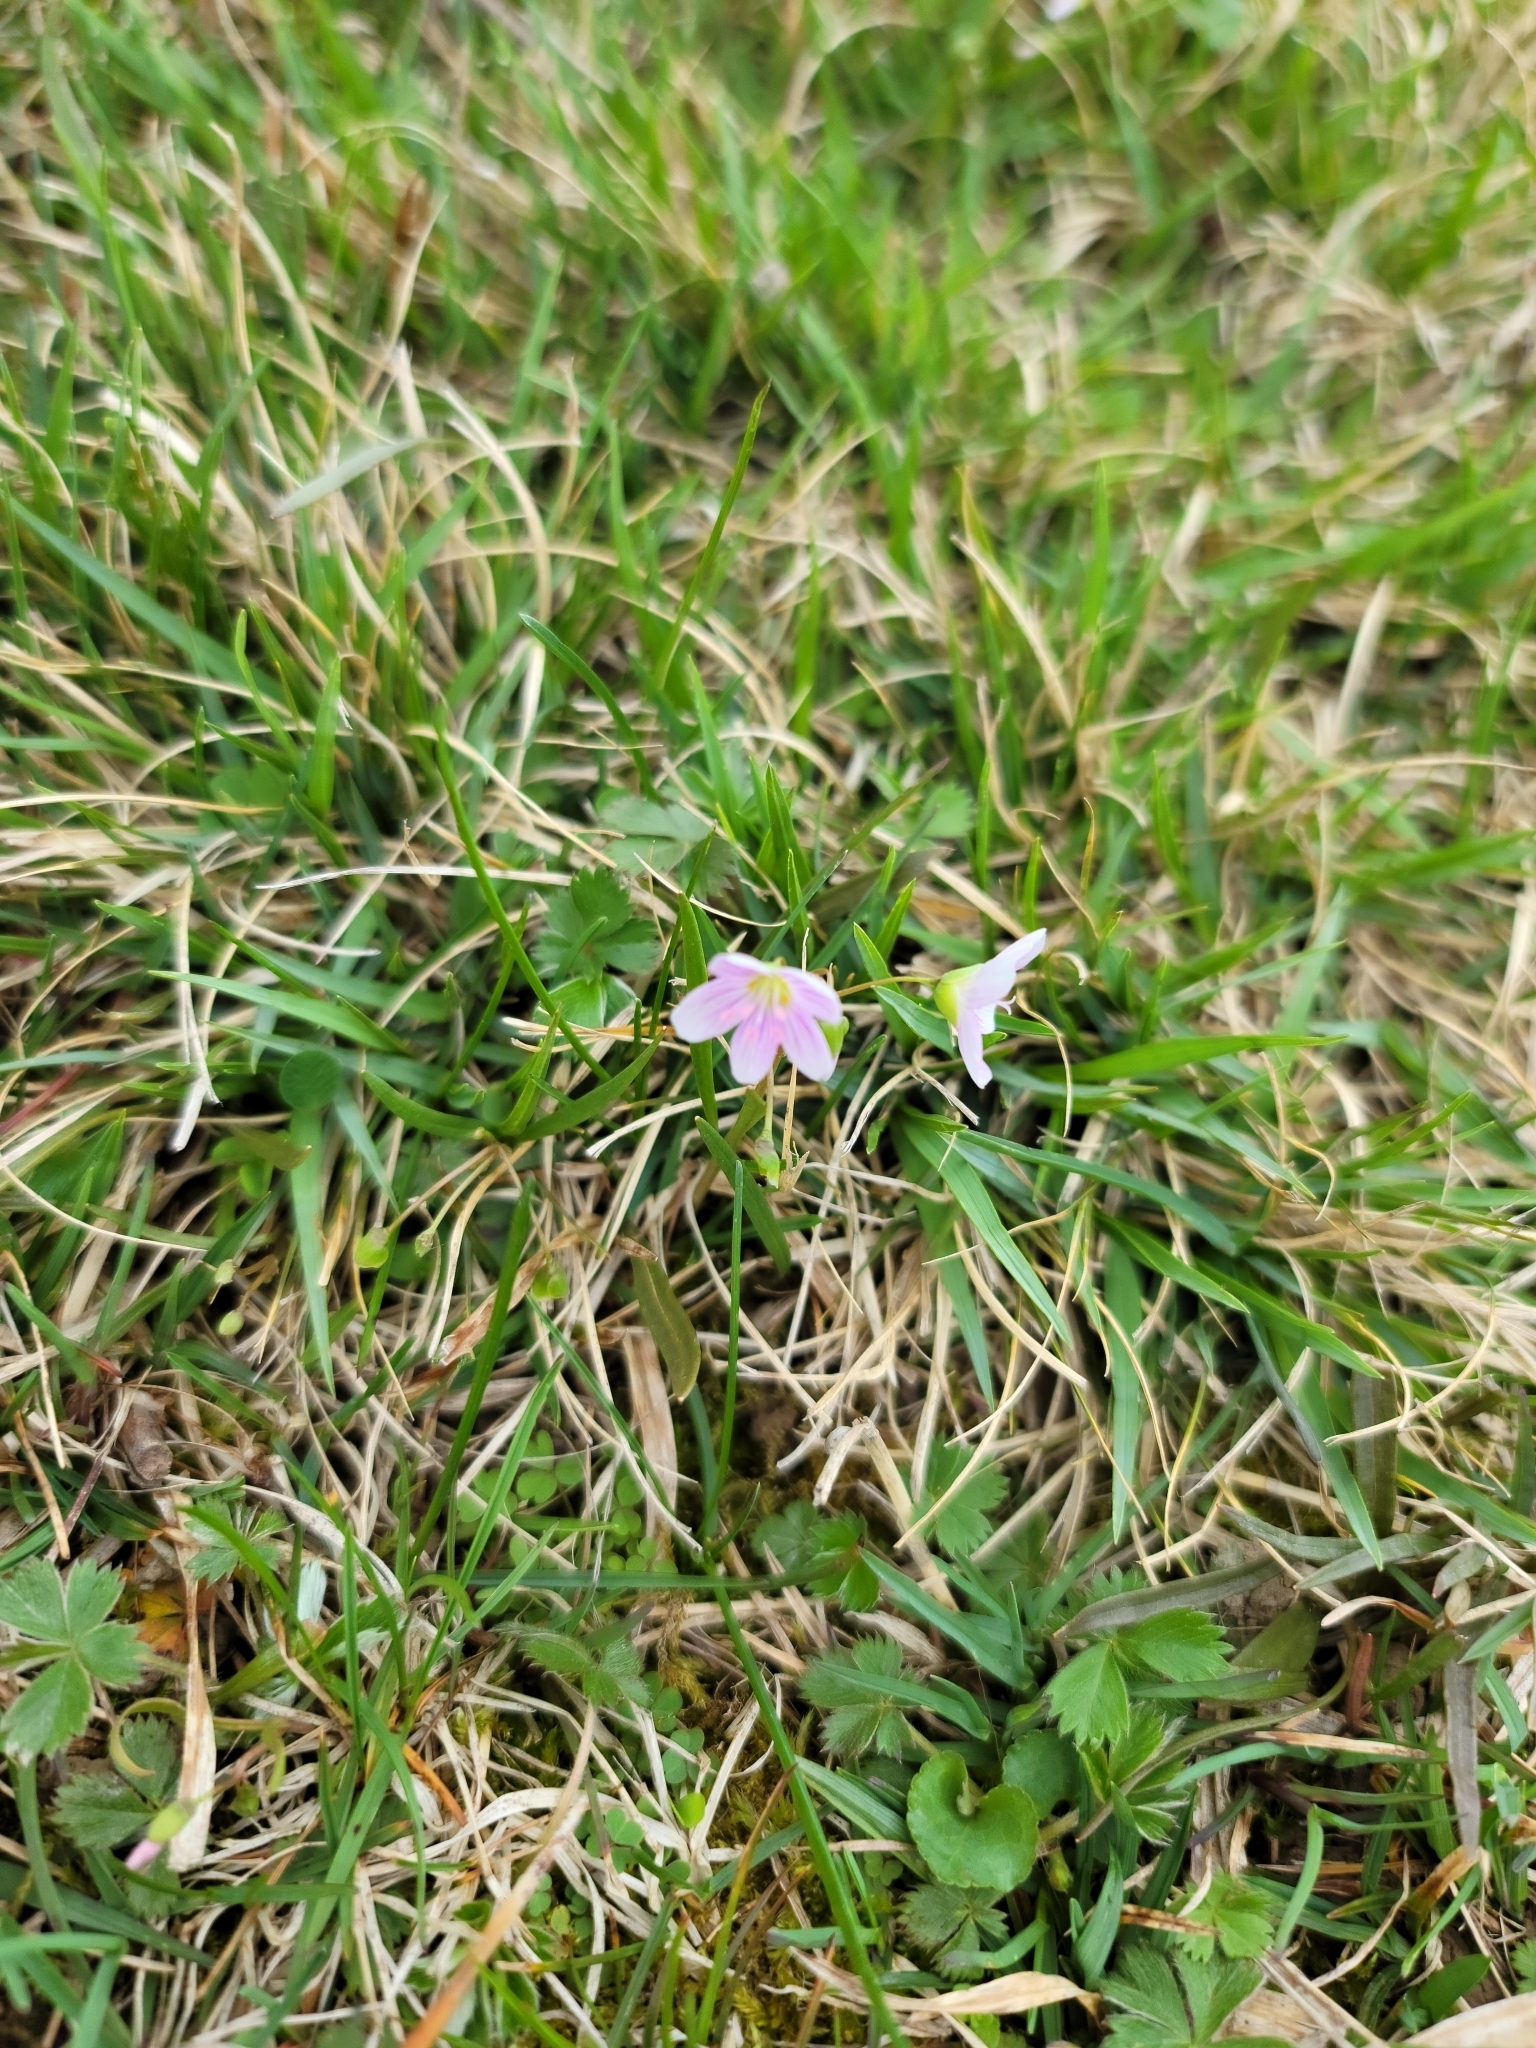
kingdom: Plantae
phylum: Tracheophyta
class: Magnoliopsida
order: Caryophyllales
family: Montiaceae
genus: Claytonia
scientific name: Claytonia virginica
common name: Virginia springbeauty
